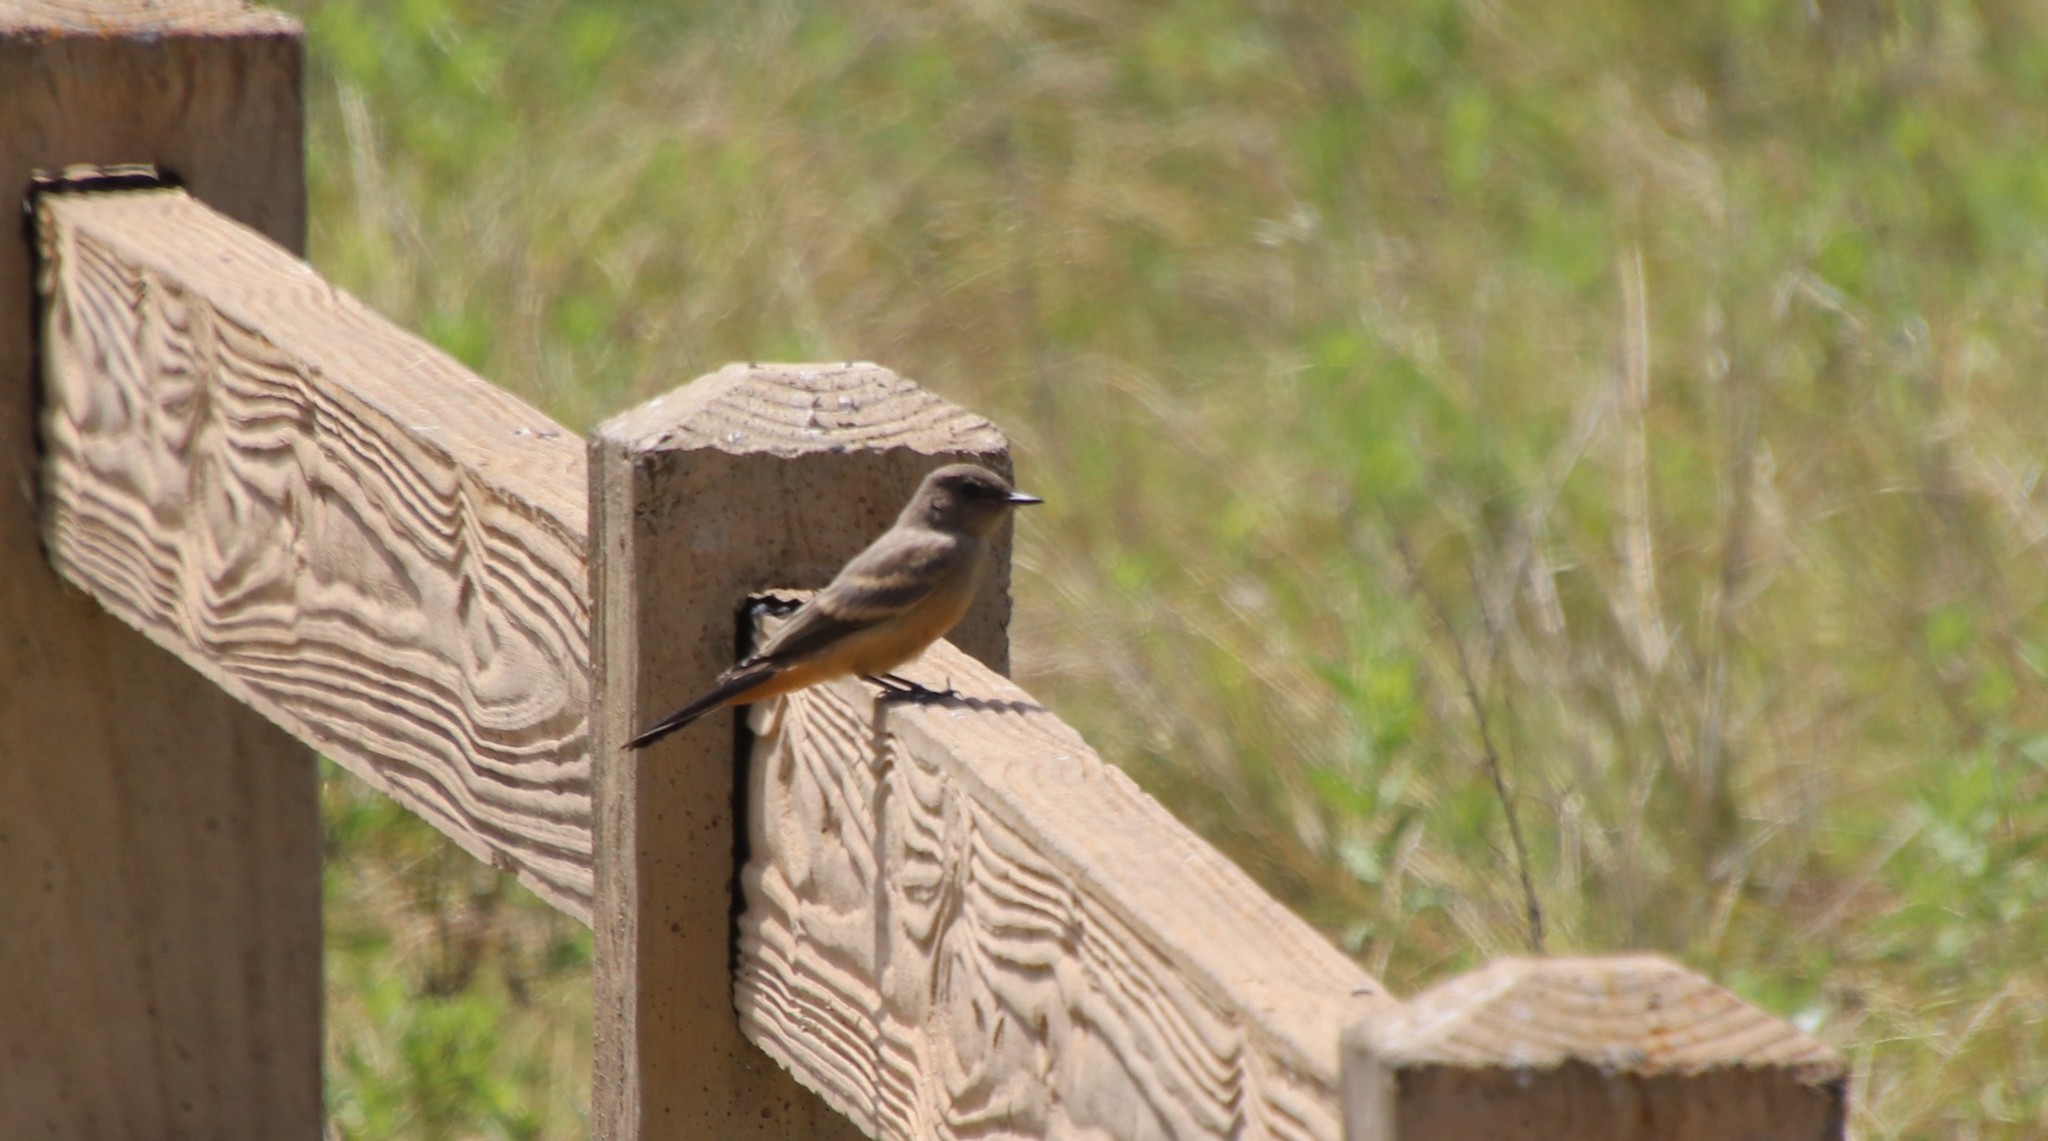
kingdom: Animalia
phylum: Chordata
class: Aves
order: Passeriformes
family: Tyrannidae
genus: Sayornis
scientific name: Sayornis saya
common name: Say's phoebe
